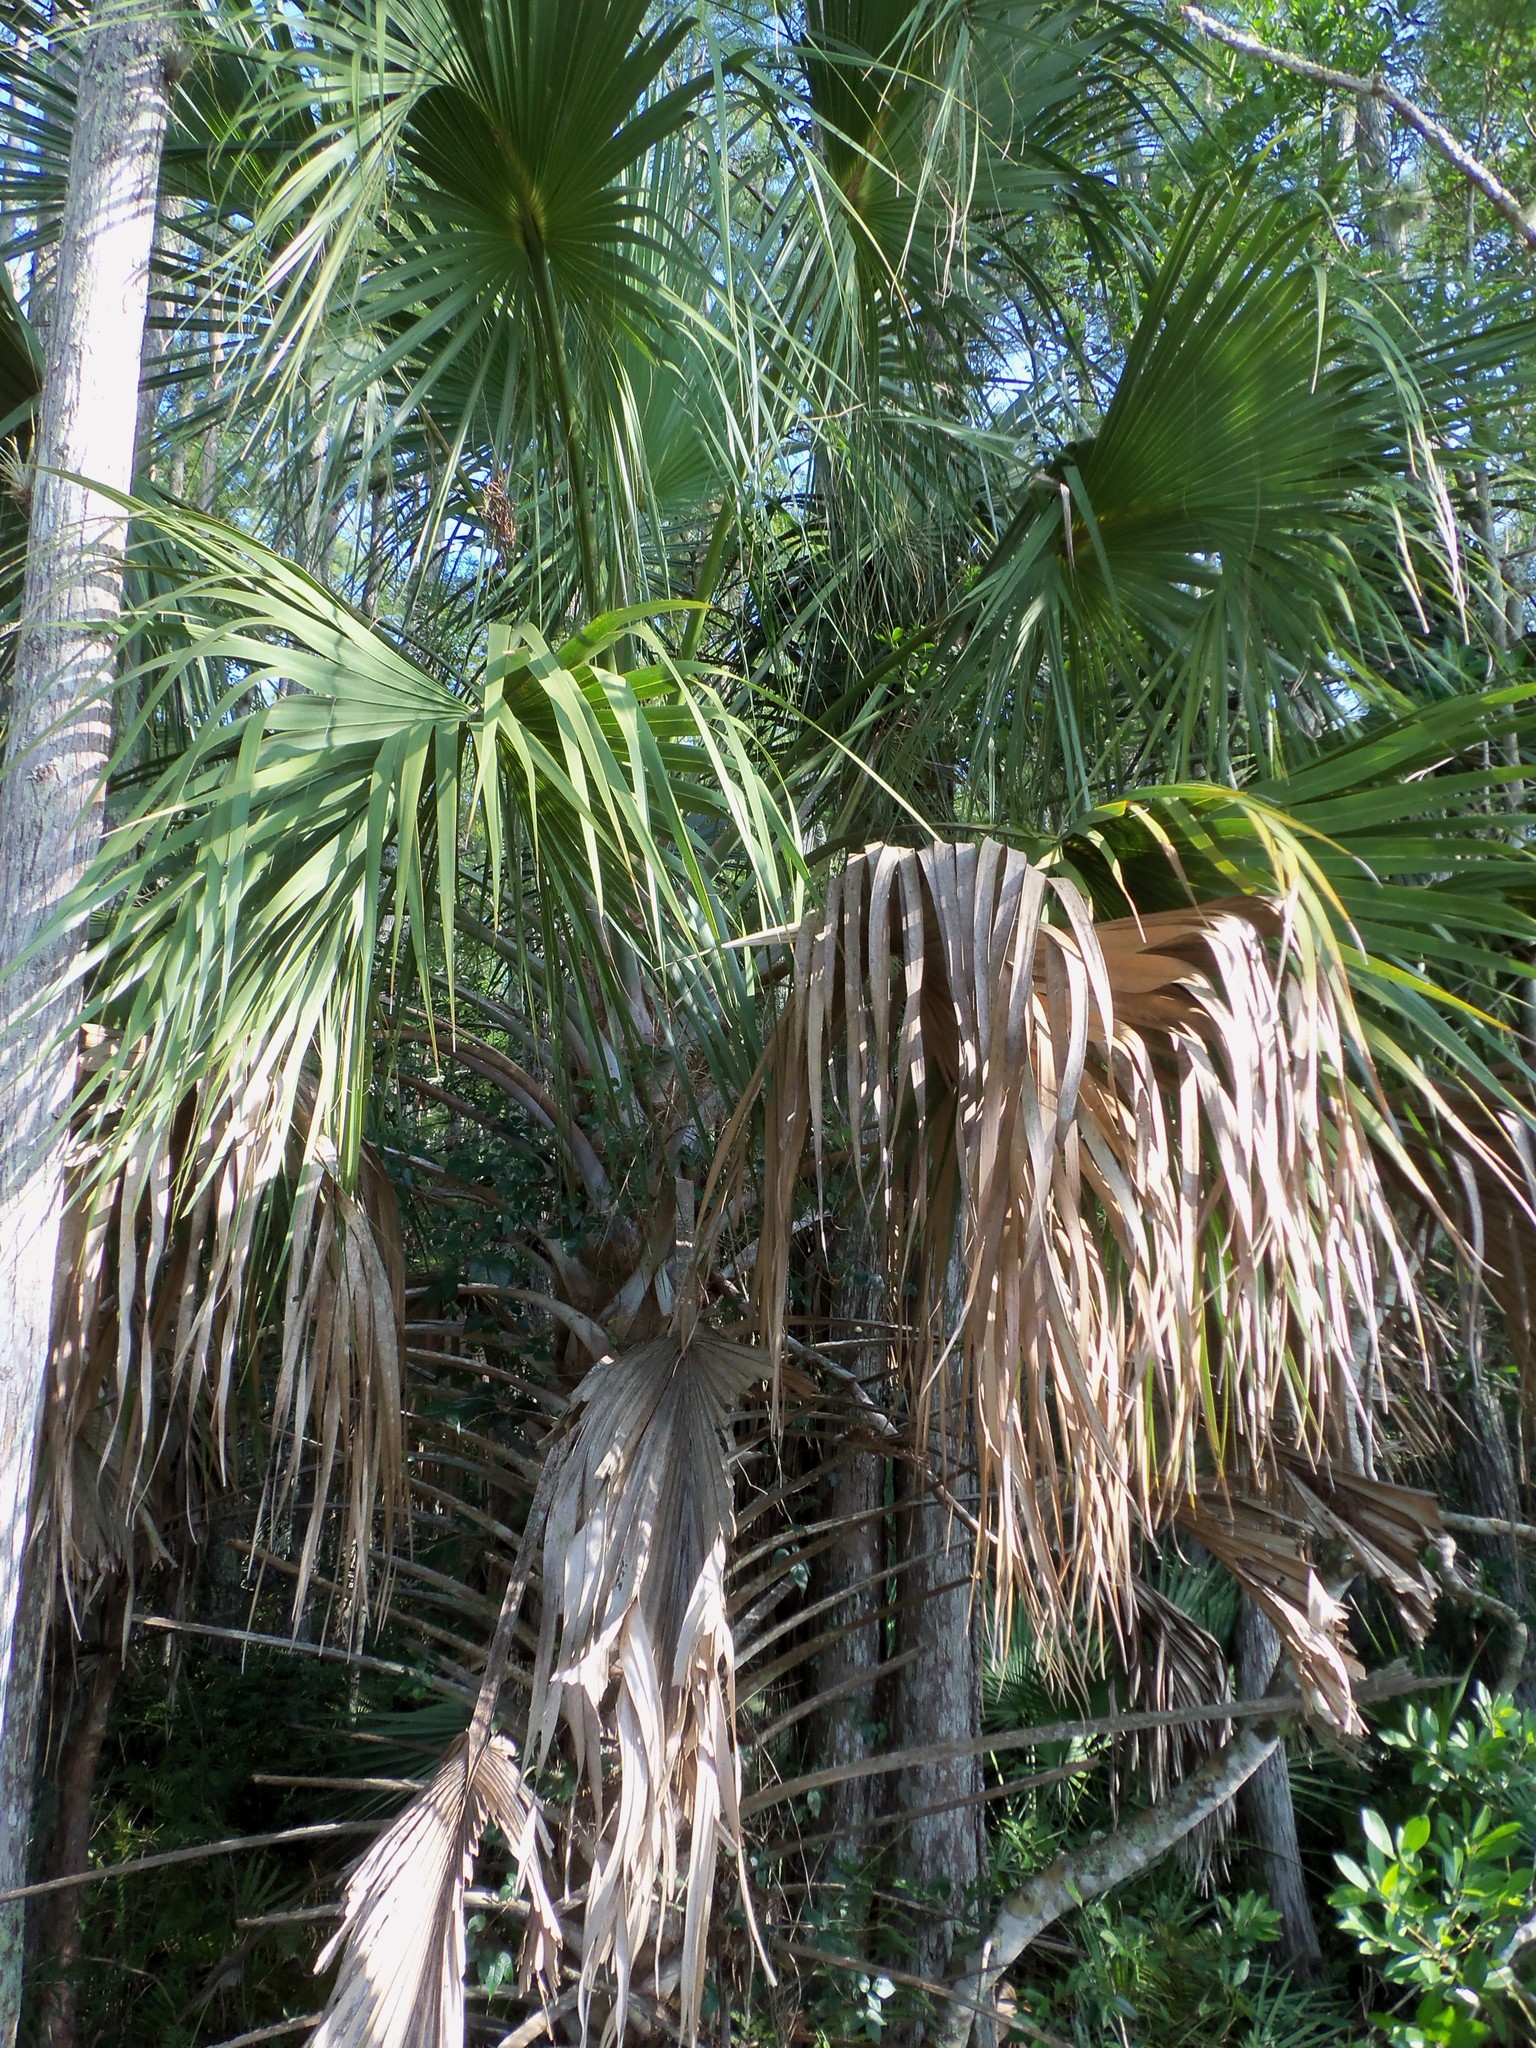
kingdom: Plantae
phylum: Tracheophyta
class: Liliopsida
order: Arecales
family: Arecaceae
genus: Sabal
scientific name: Sabal palmetto
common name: Blue palmetto
